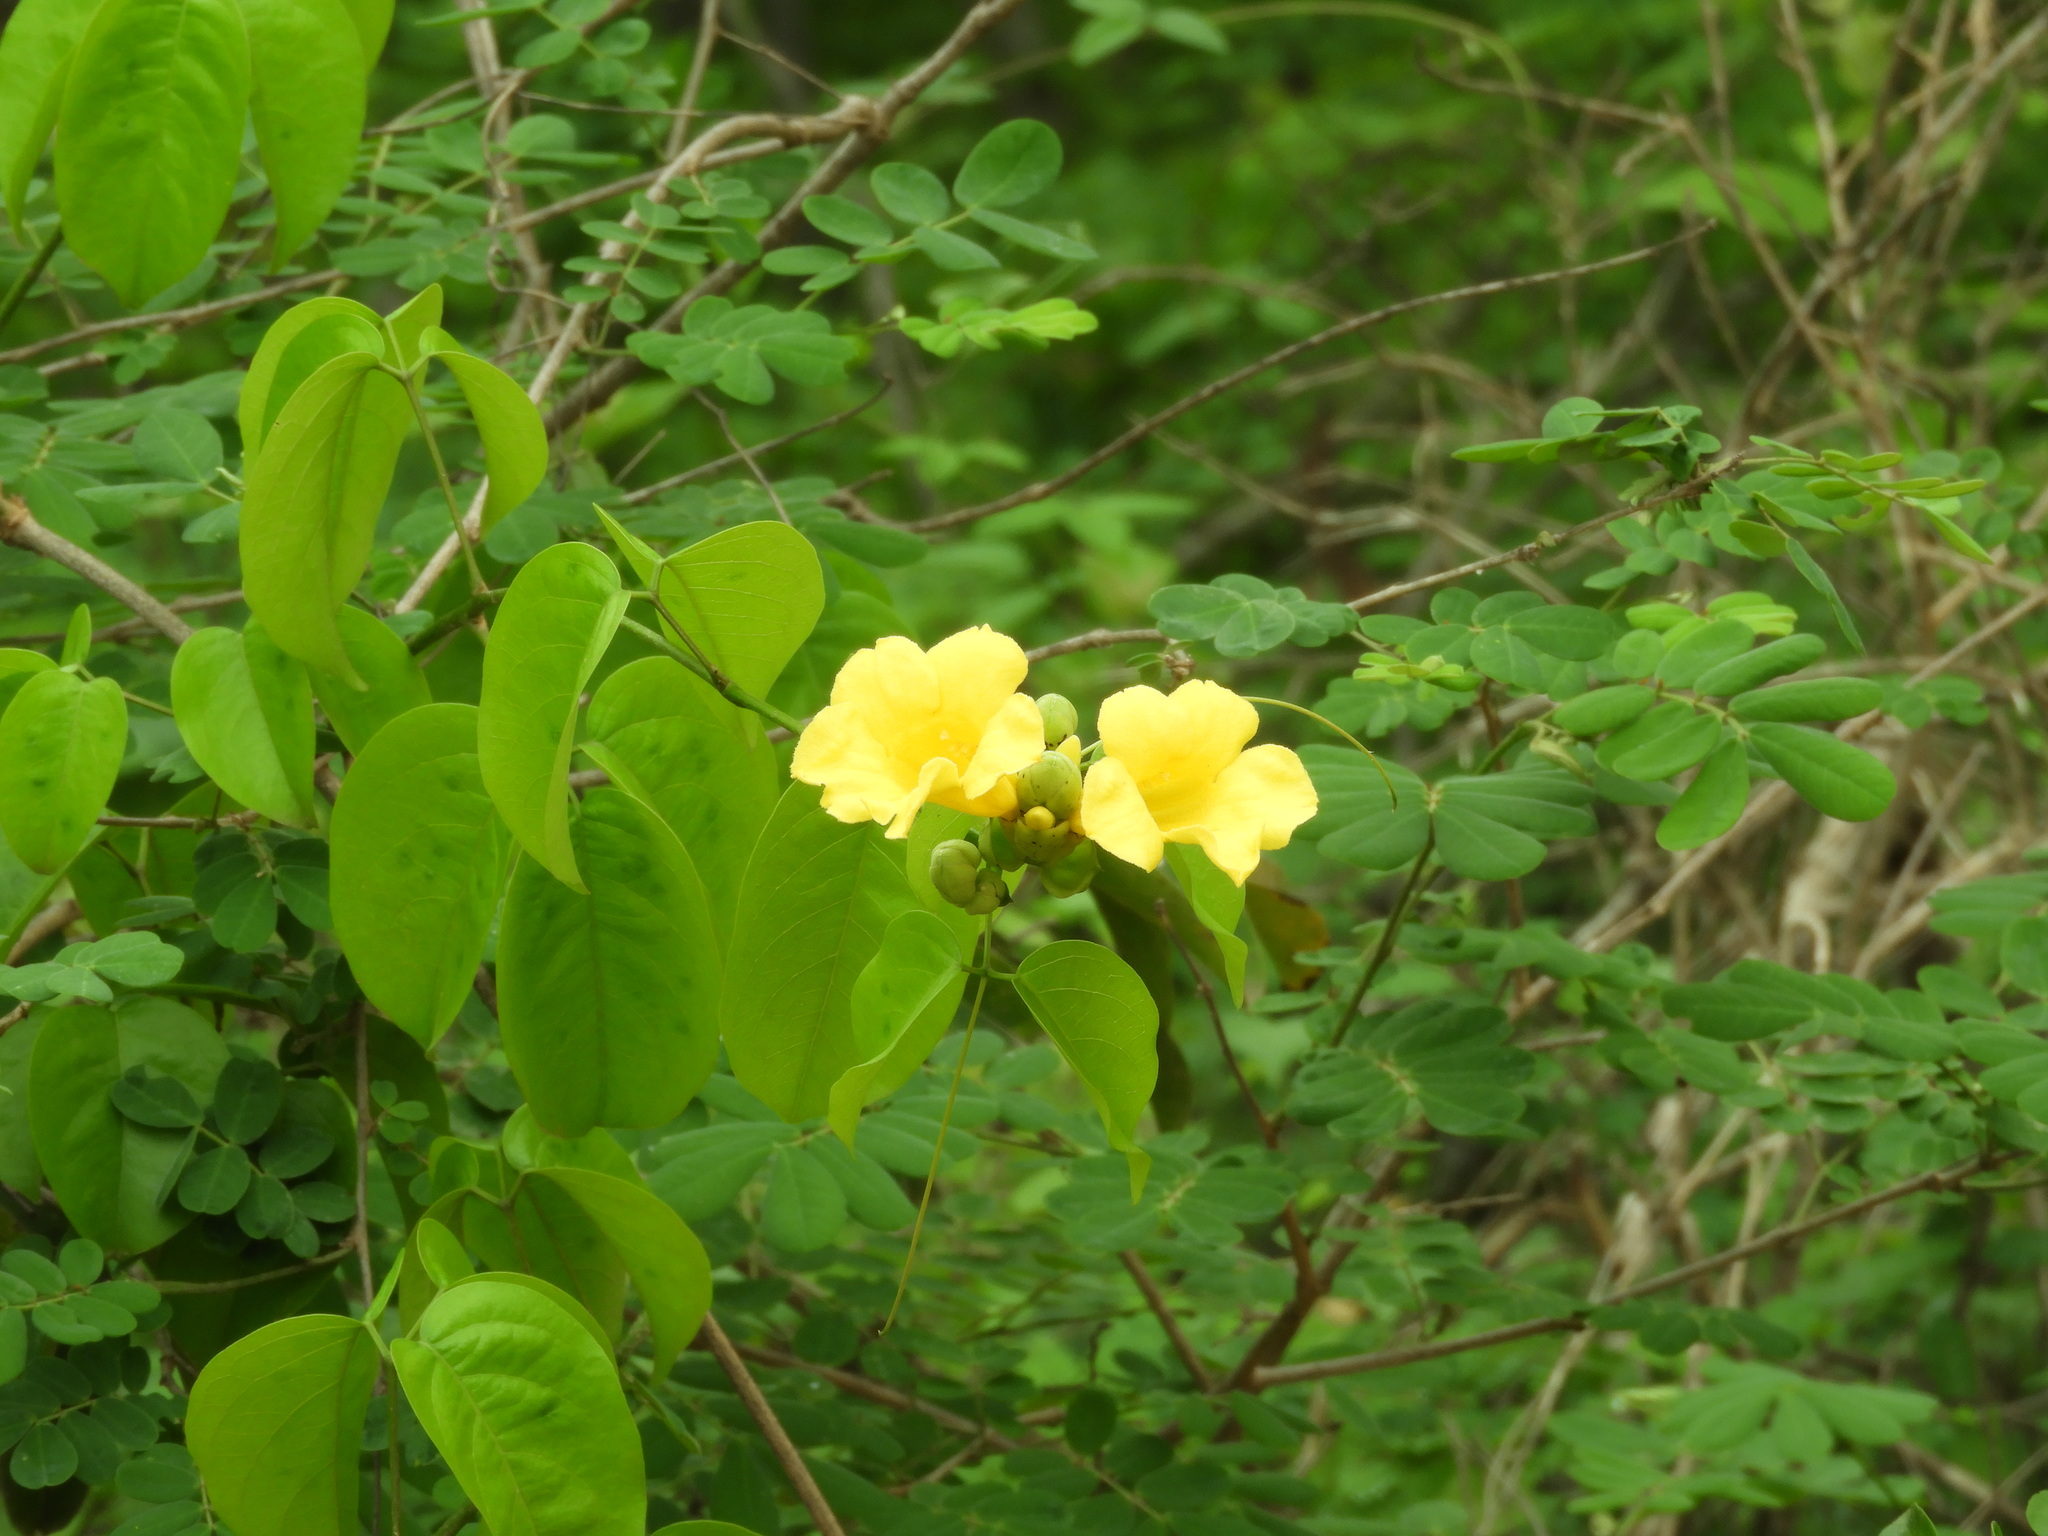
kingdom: Plantae
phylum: Tracheophyta
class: Magnoliopsida
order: Lamiales
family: Bignoniaceae
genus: Adenocalymma
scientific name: Adenocalymma inundatum
